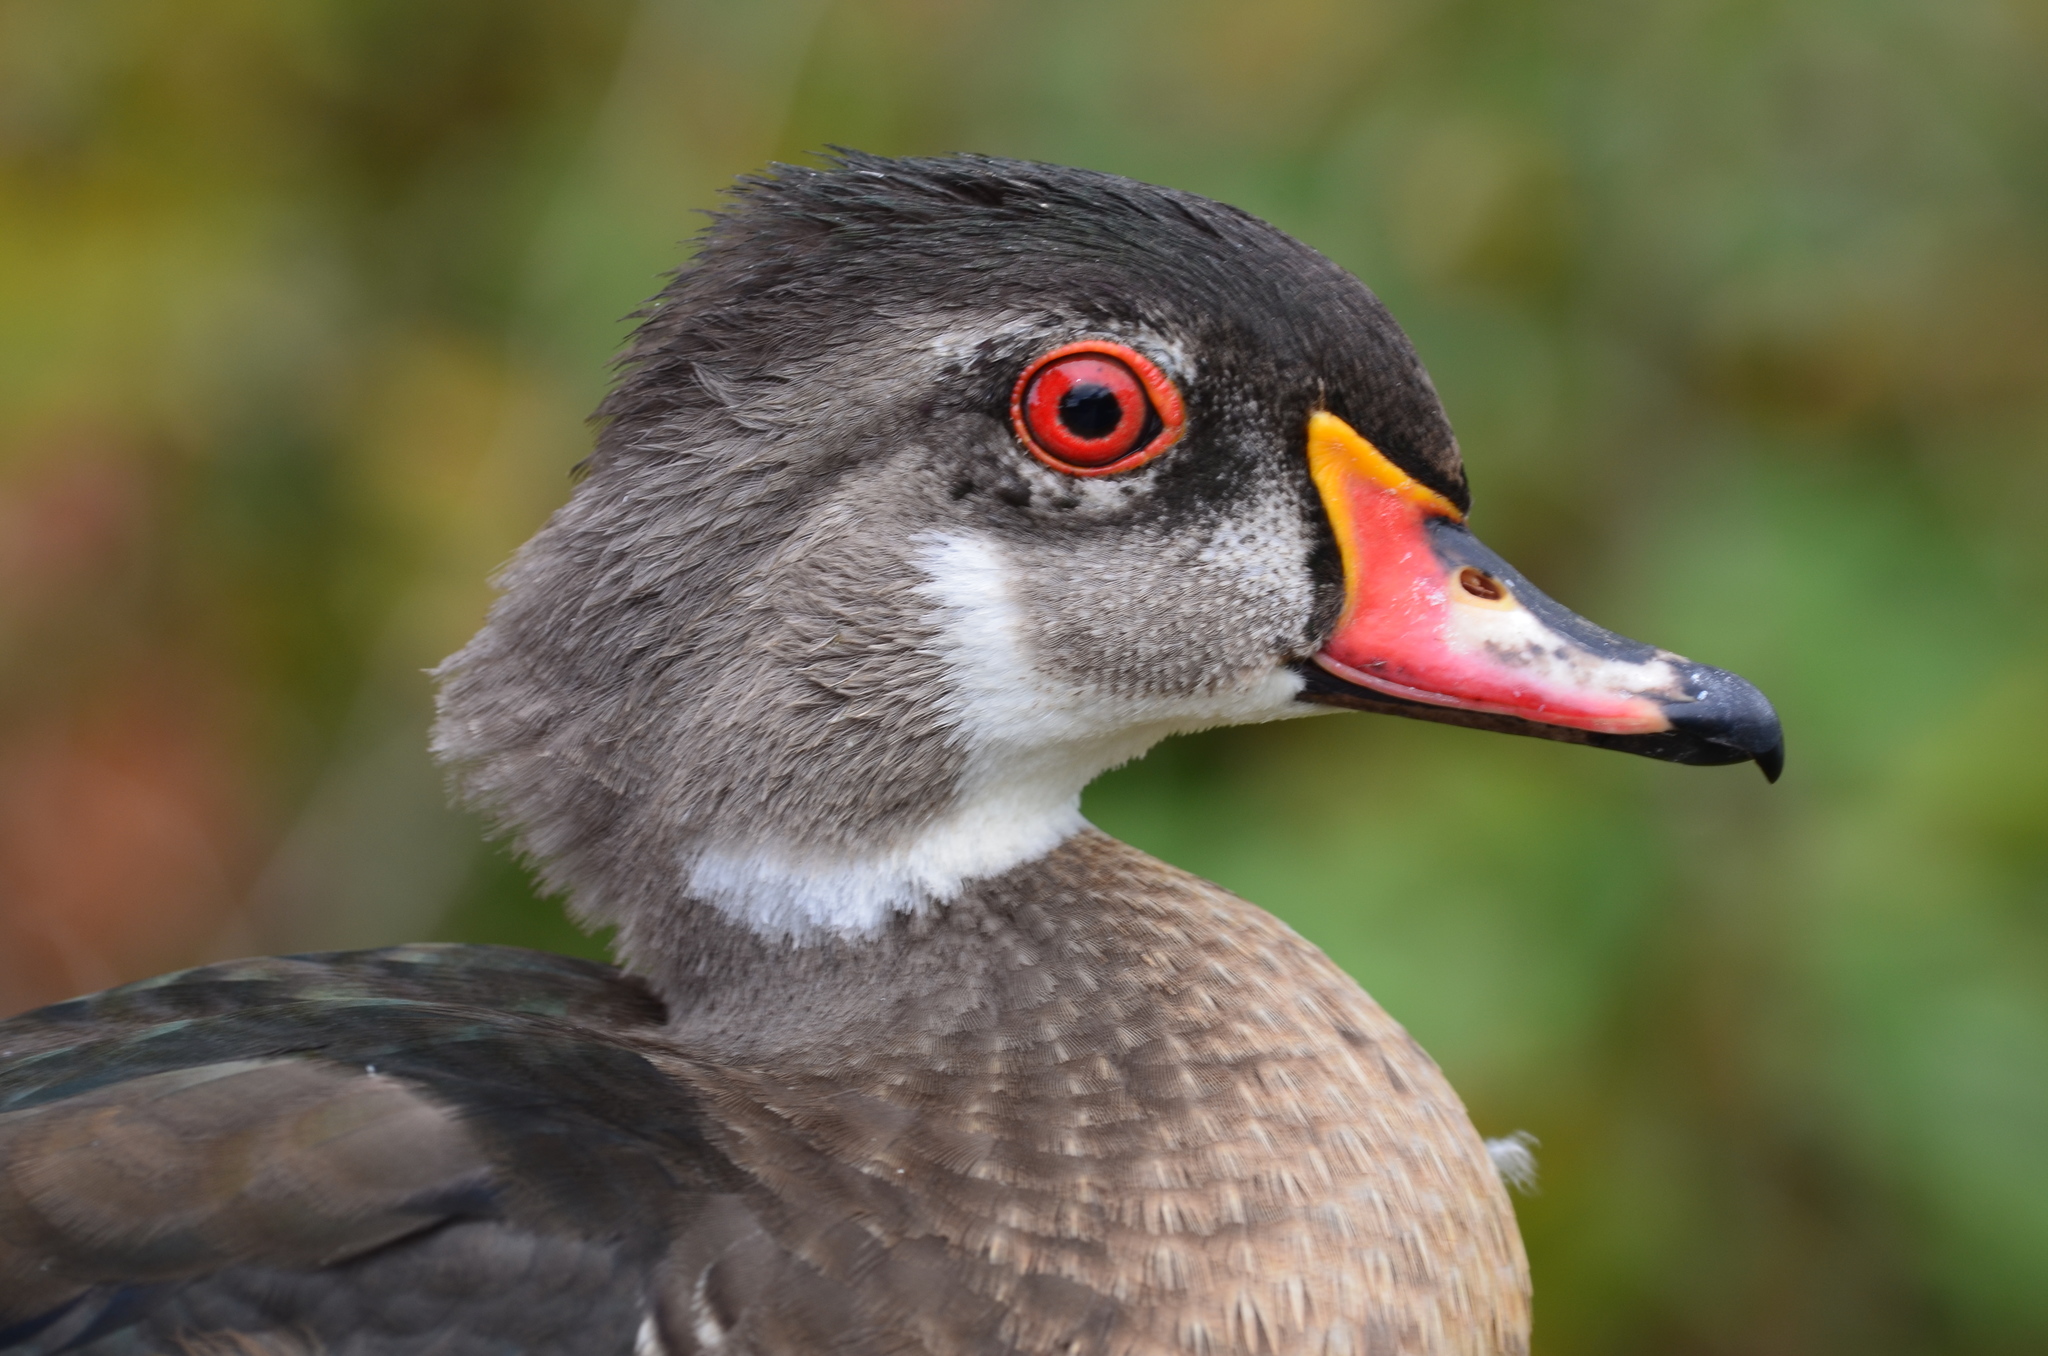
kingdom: Animalia
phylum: Chordata
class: Aves
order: Anseriformes
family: Anatidae
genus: Aix
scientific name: Aix sponsa
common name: Wood duck
